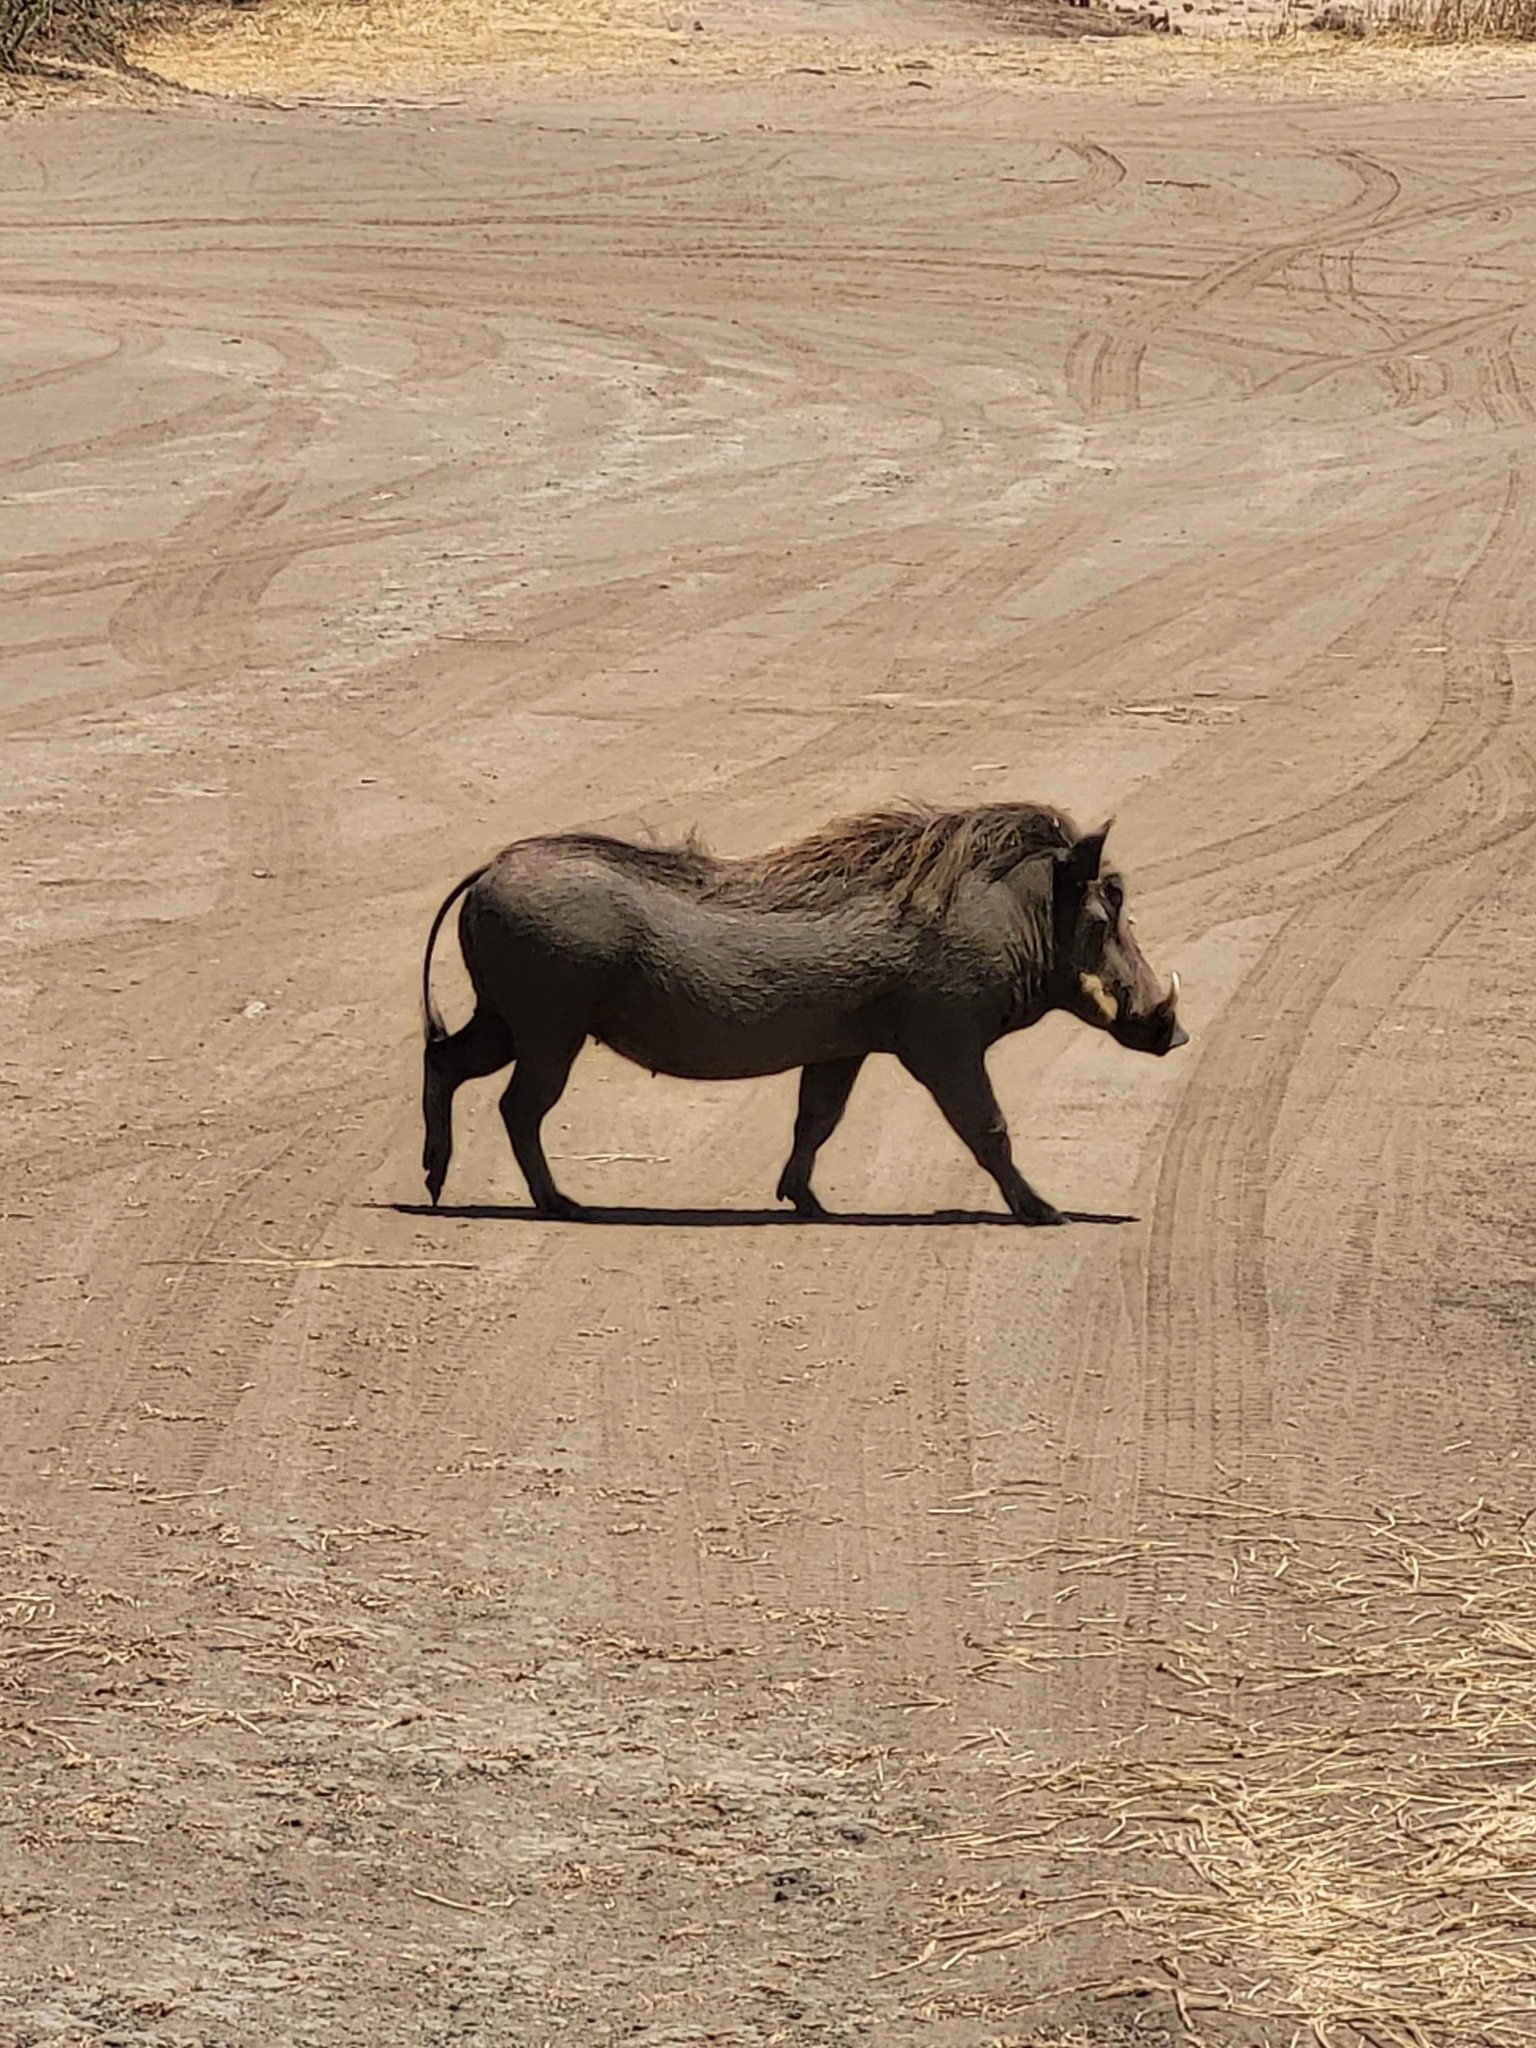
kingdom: Animalia
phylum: Chordata
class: Mammalia
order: Artiodactyla
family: Suidae
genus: Phacochoerus
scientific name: Phacochoerus africanus
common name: Common warthog
